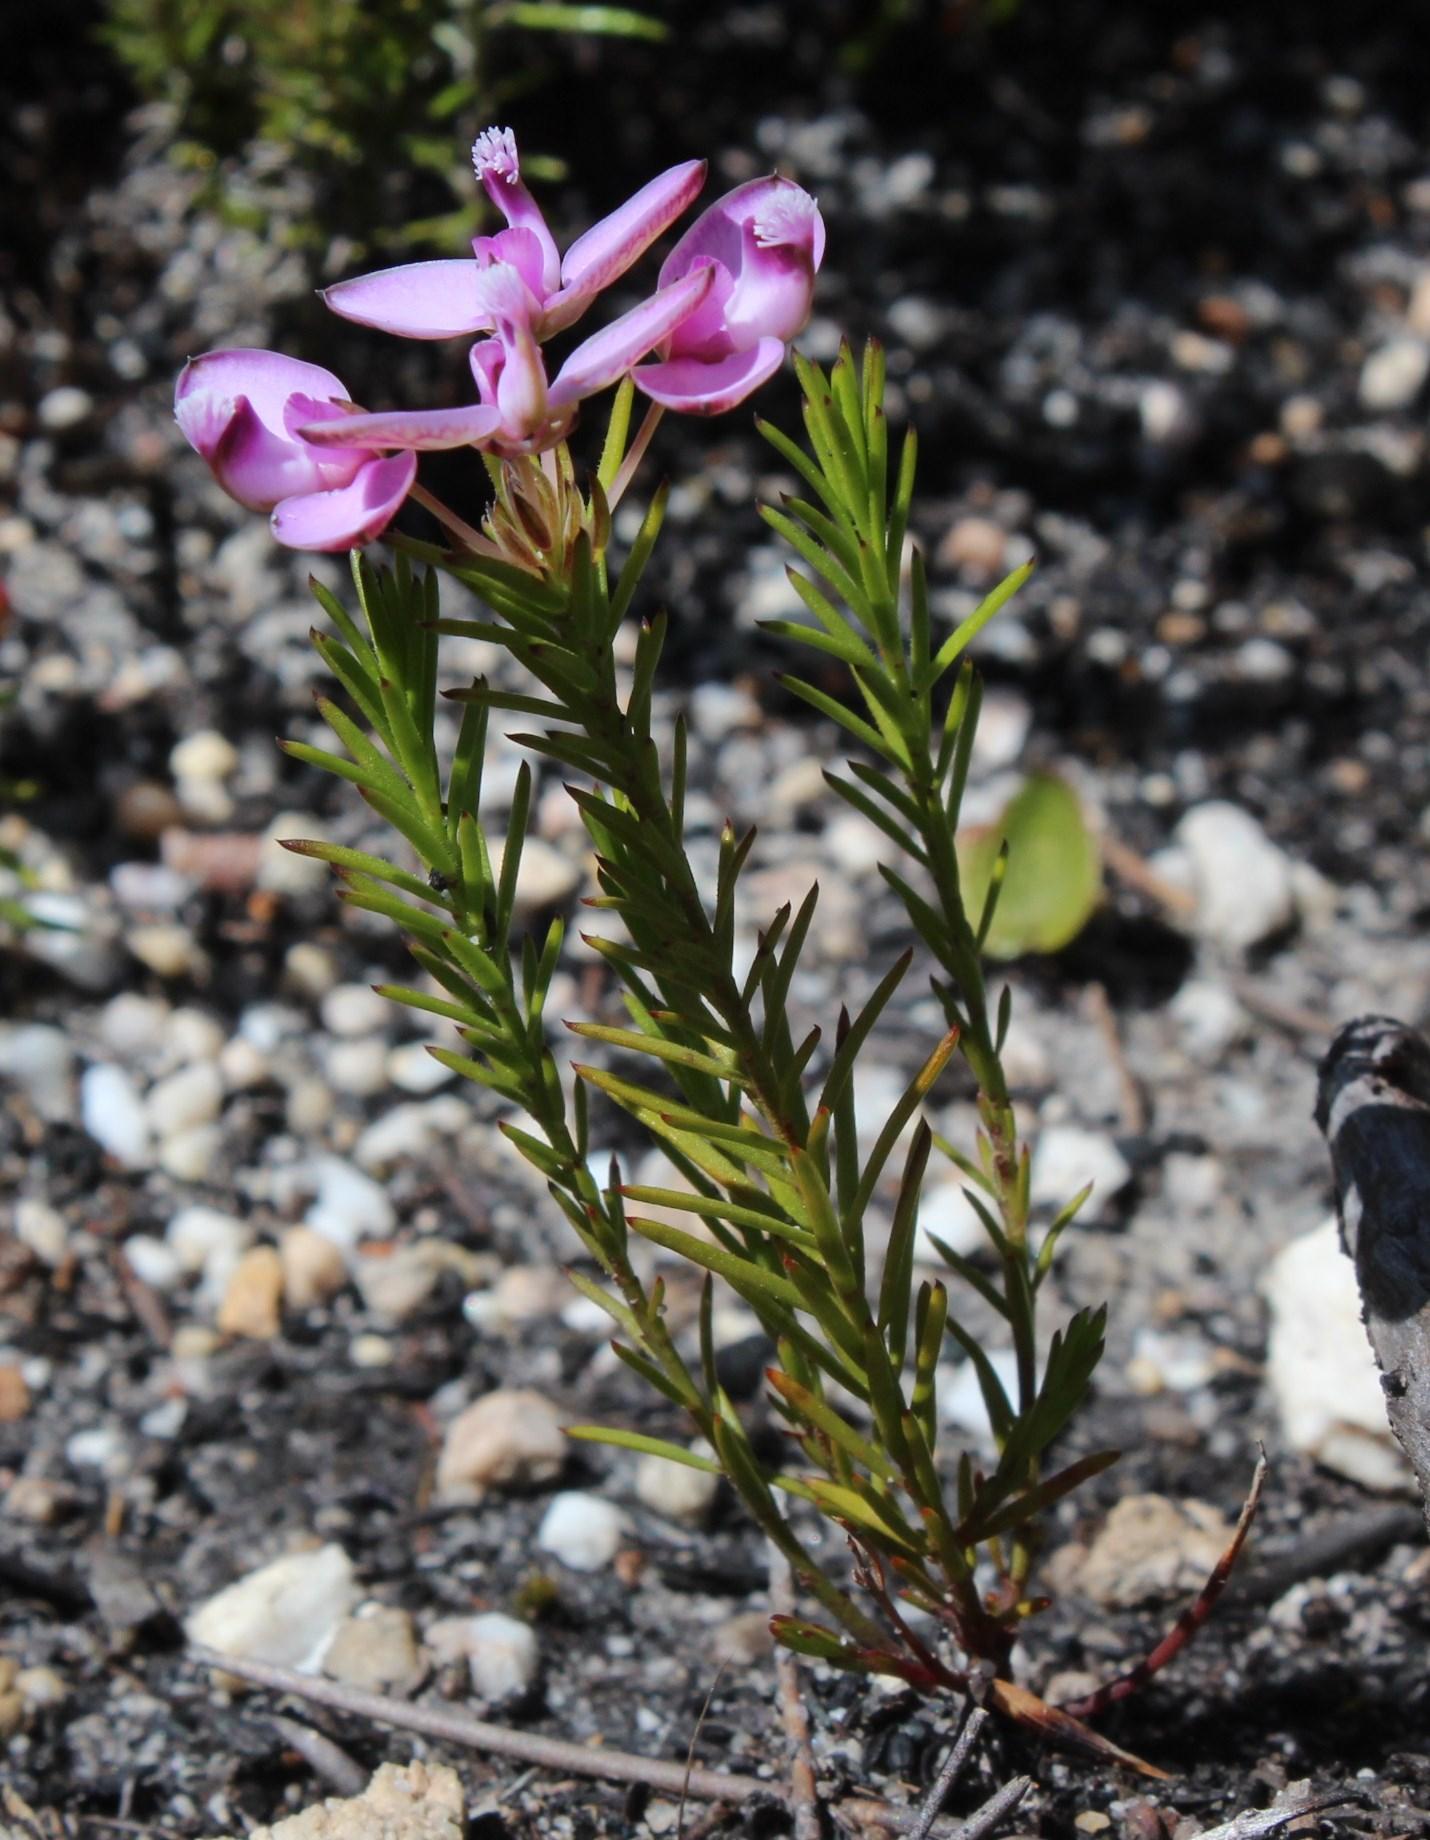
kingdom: Plantae
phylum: Tracheophyta
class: Magnoliopsida
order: Fabales
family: Polygalaceae
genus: Polygala
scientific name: Polygala umbellata
